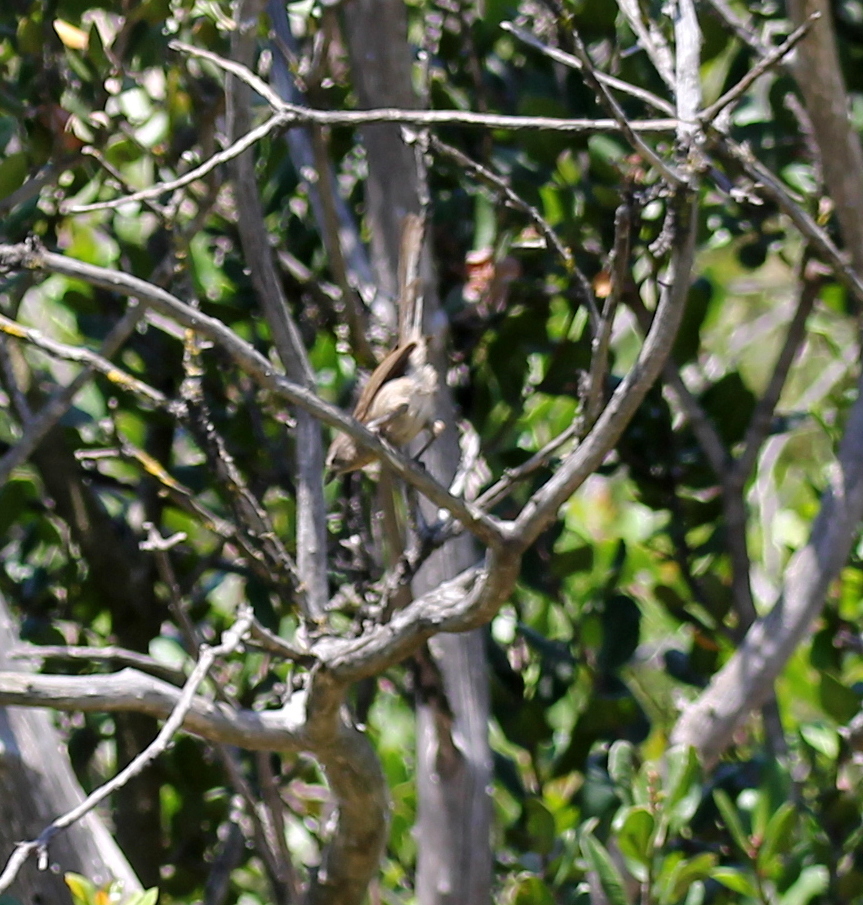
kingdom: Animalia
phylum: Chordata
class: Aves
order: Passeriformes
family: Sylviidae
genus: Chamaea
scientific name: Chamaea fasciata
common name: Wrentit
